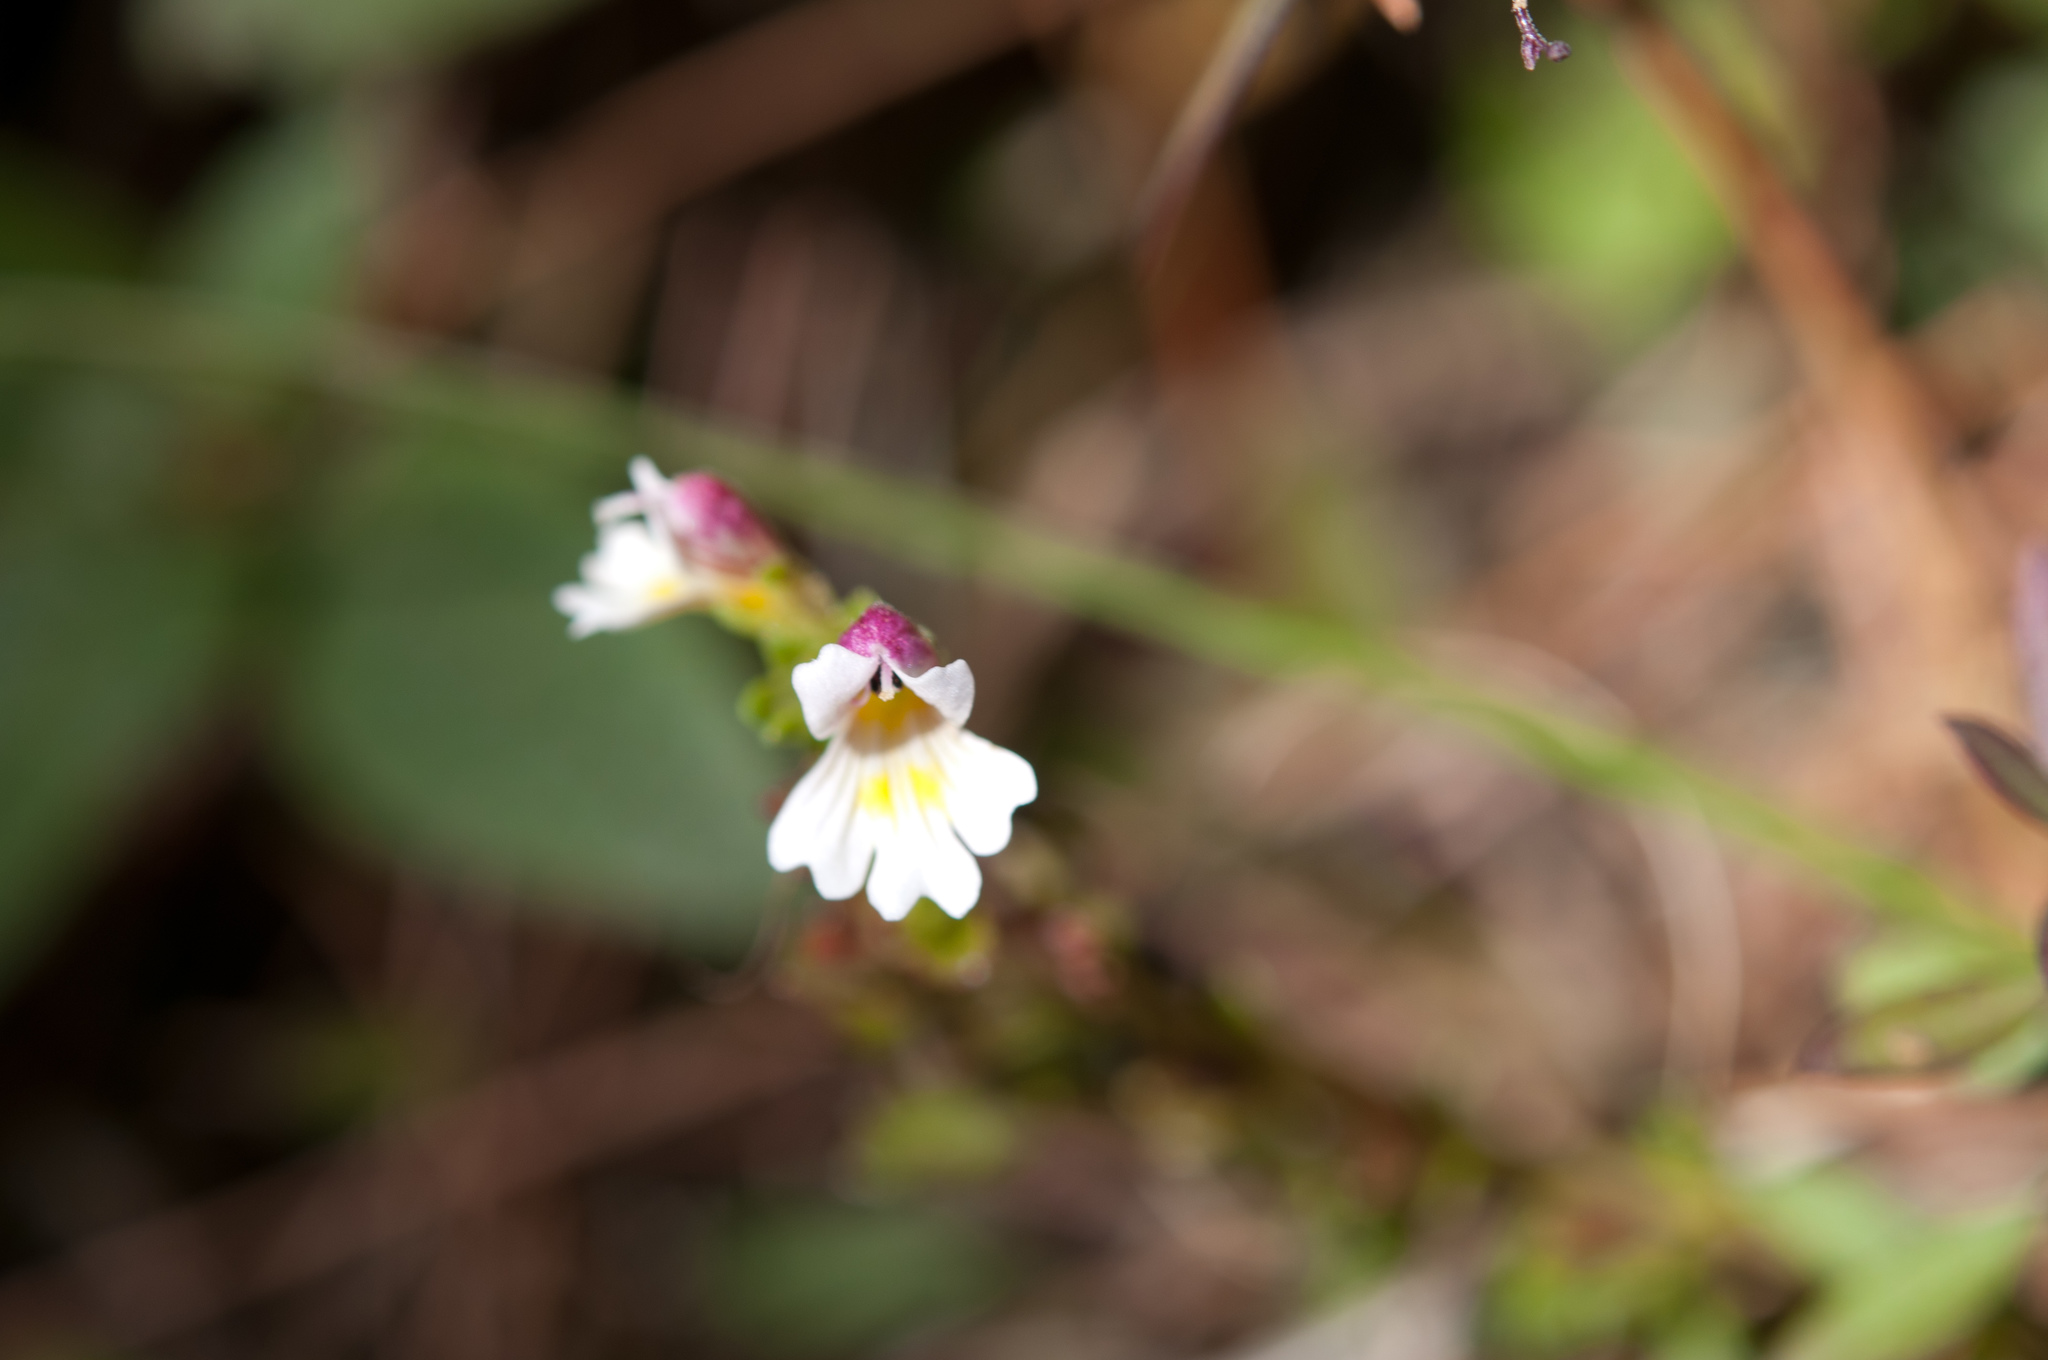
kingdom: Plantae
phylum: Tracheophyta
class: Magnoliopsida
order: Lamiales
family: Orobanchaceae
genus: Euphrasia
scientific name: Euphrasia transmorrisonensis
